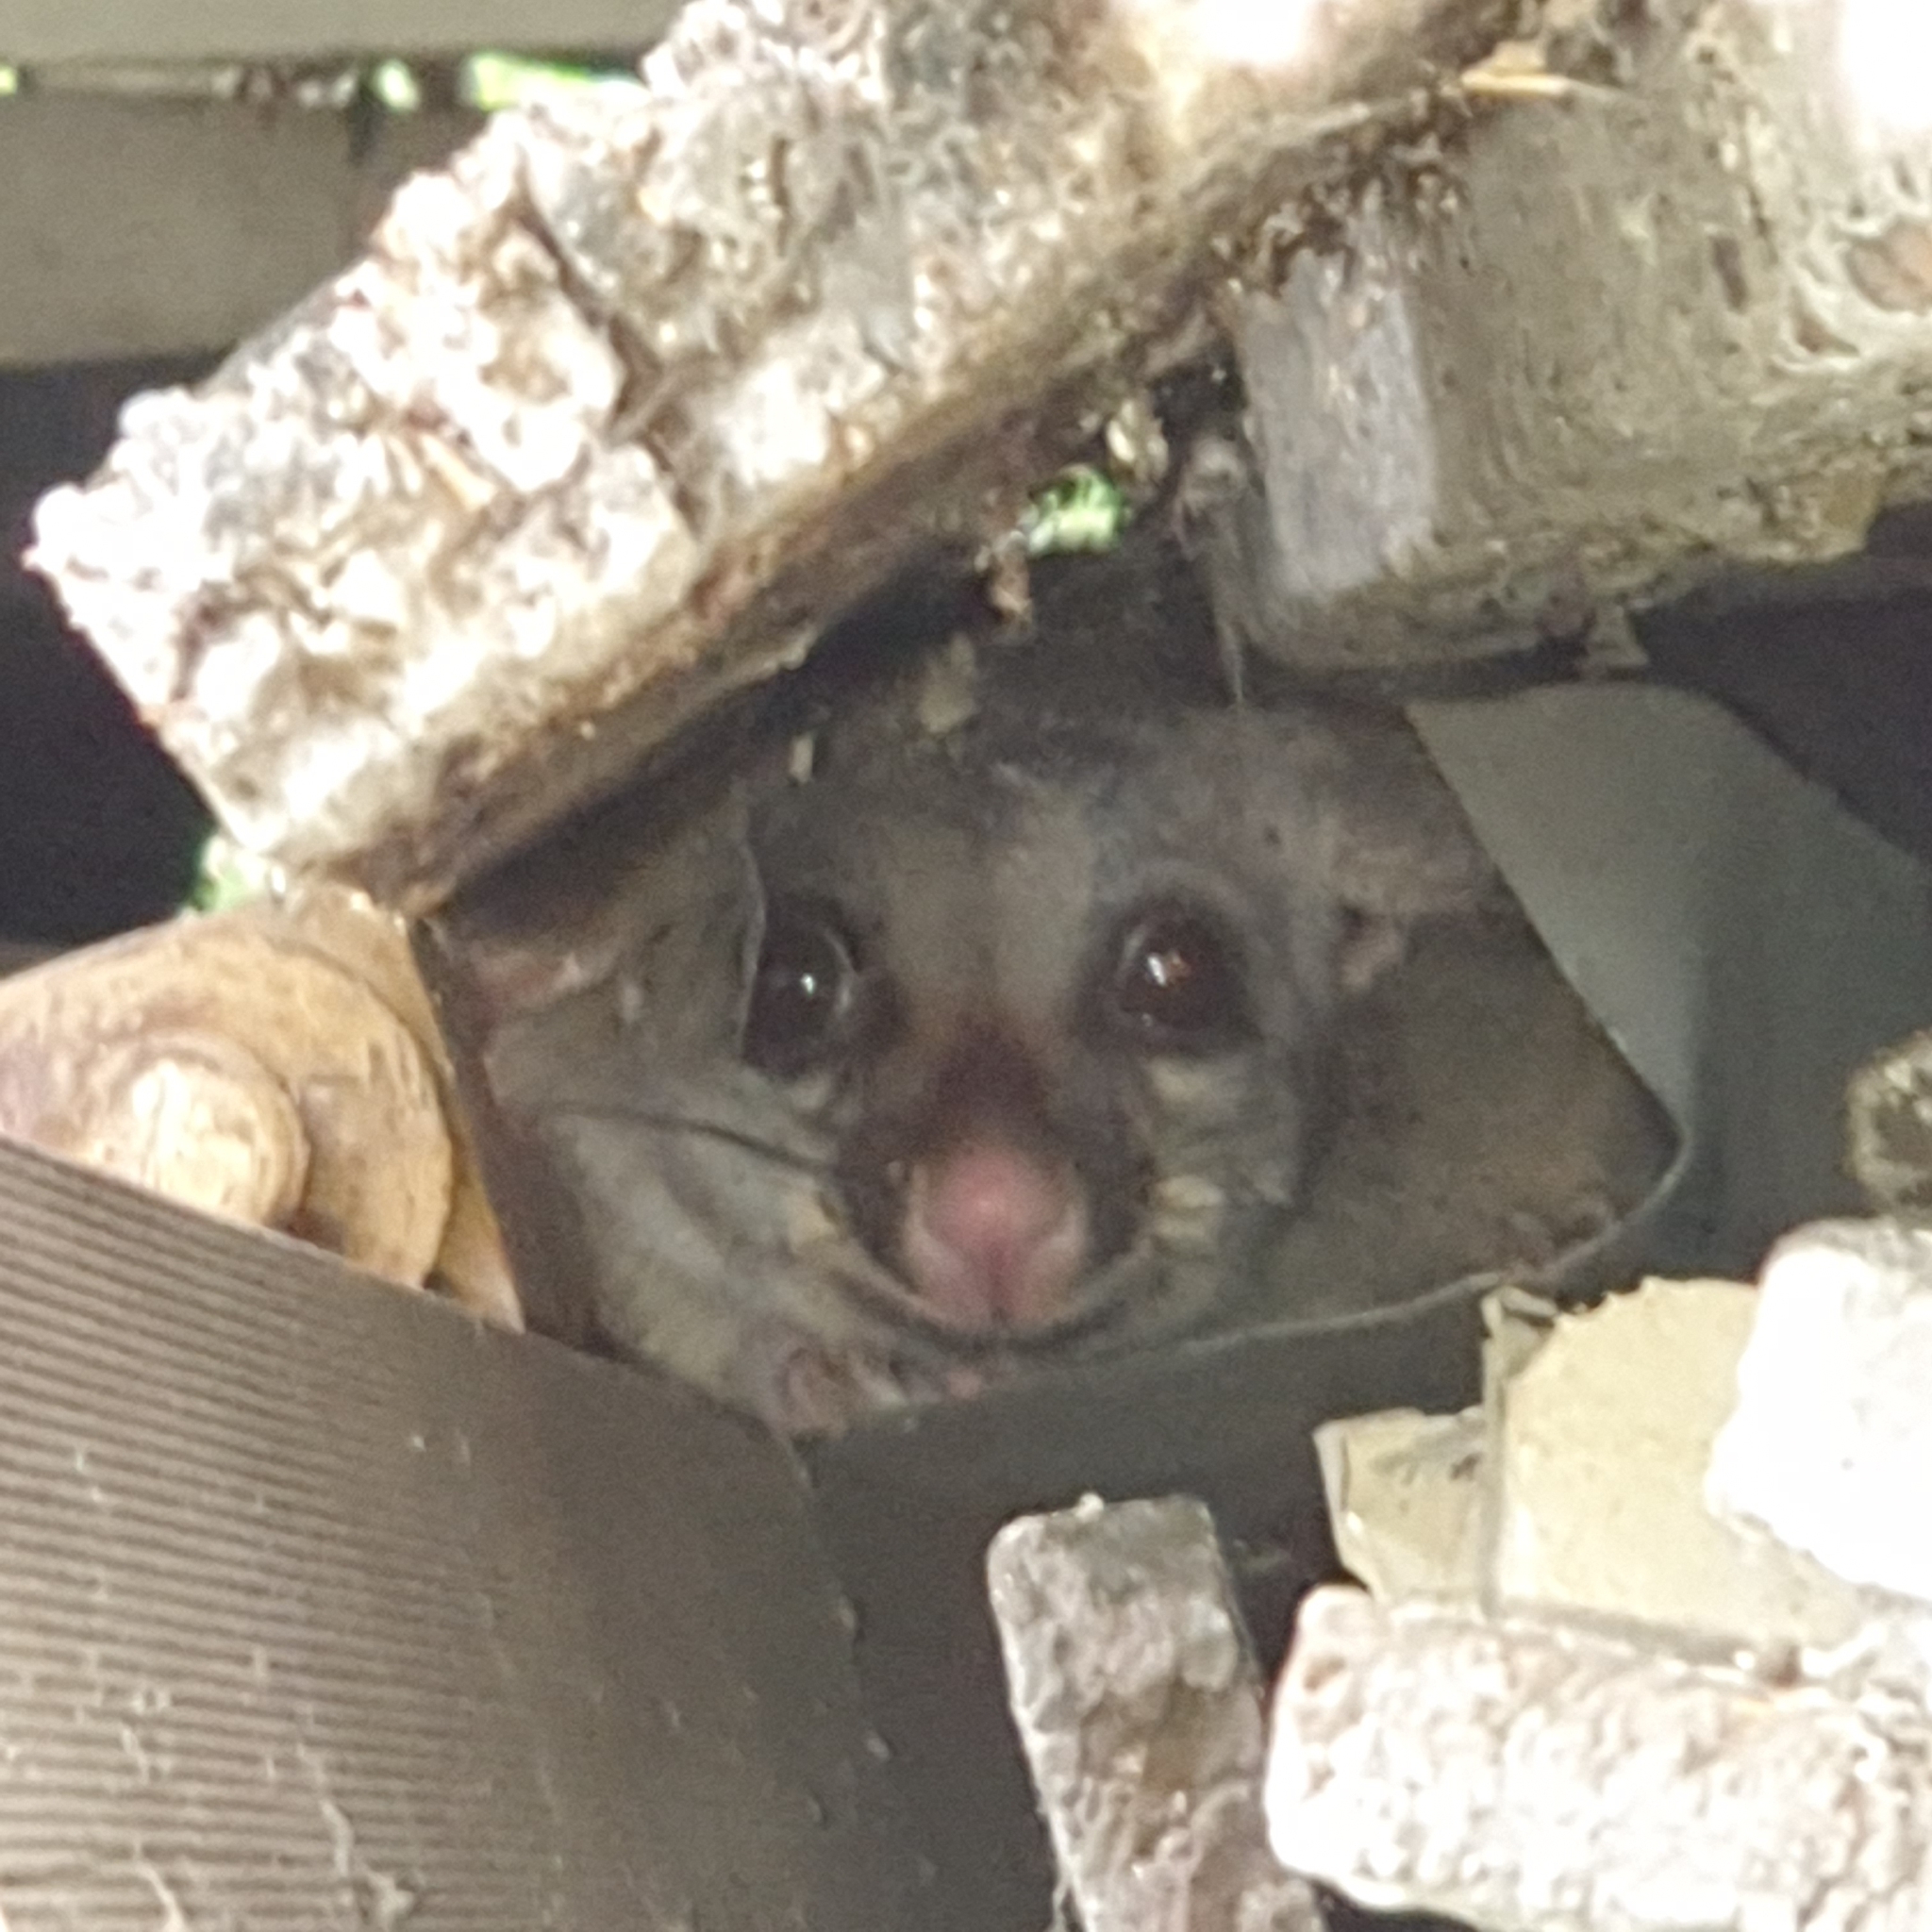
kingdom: Animalia
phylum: Chordata
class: Mammalia
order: Diprotodontia
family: Phalangeridae
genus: Trichosurus
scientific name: Trichosurus vulpecula
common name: Common brushtail
